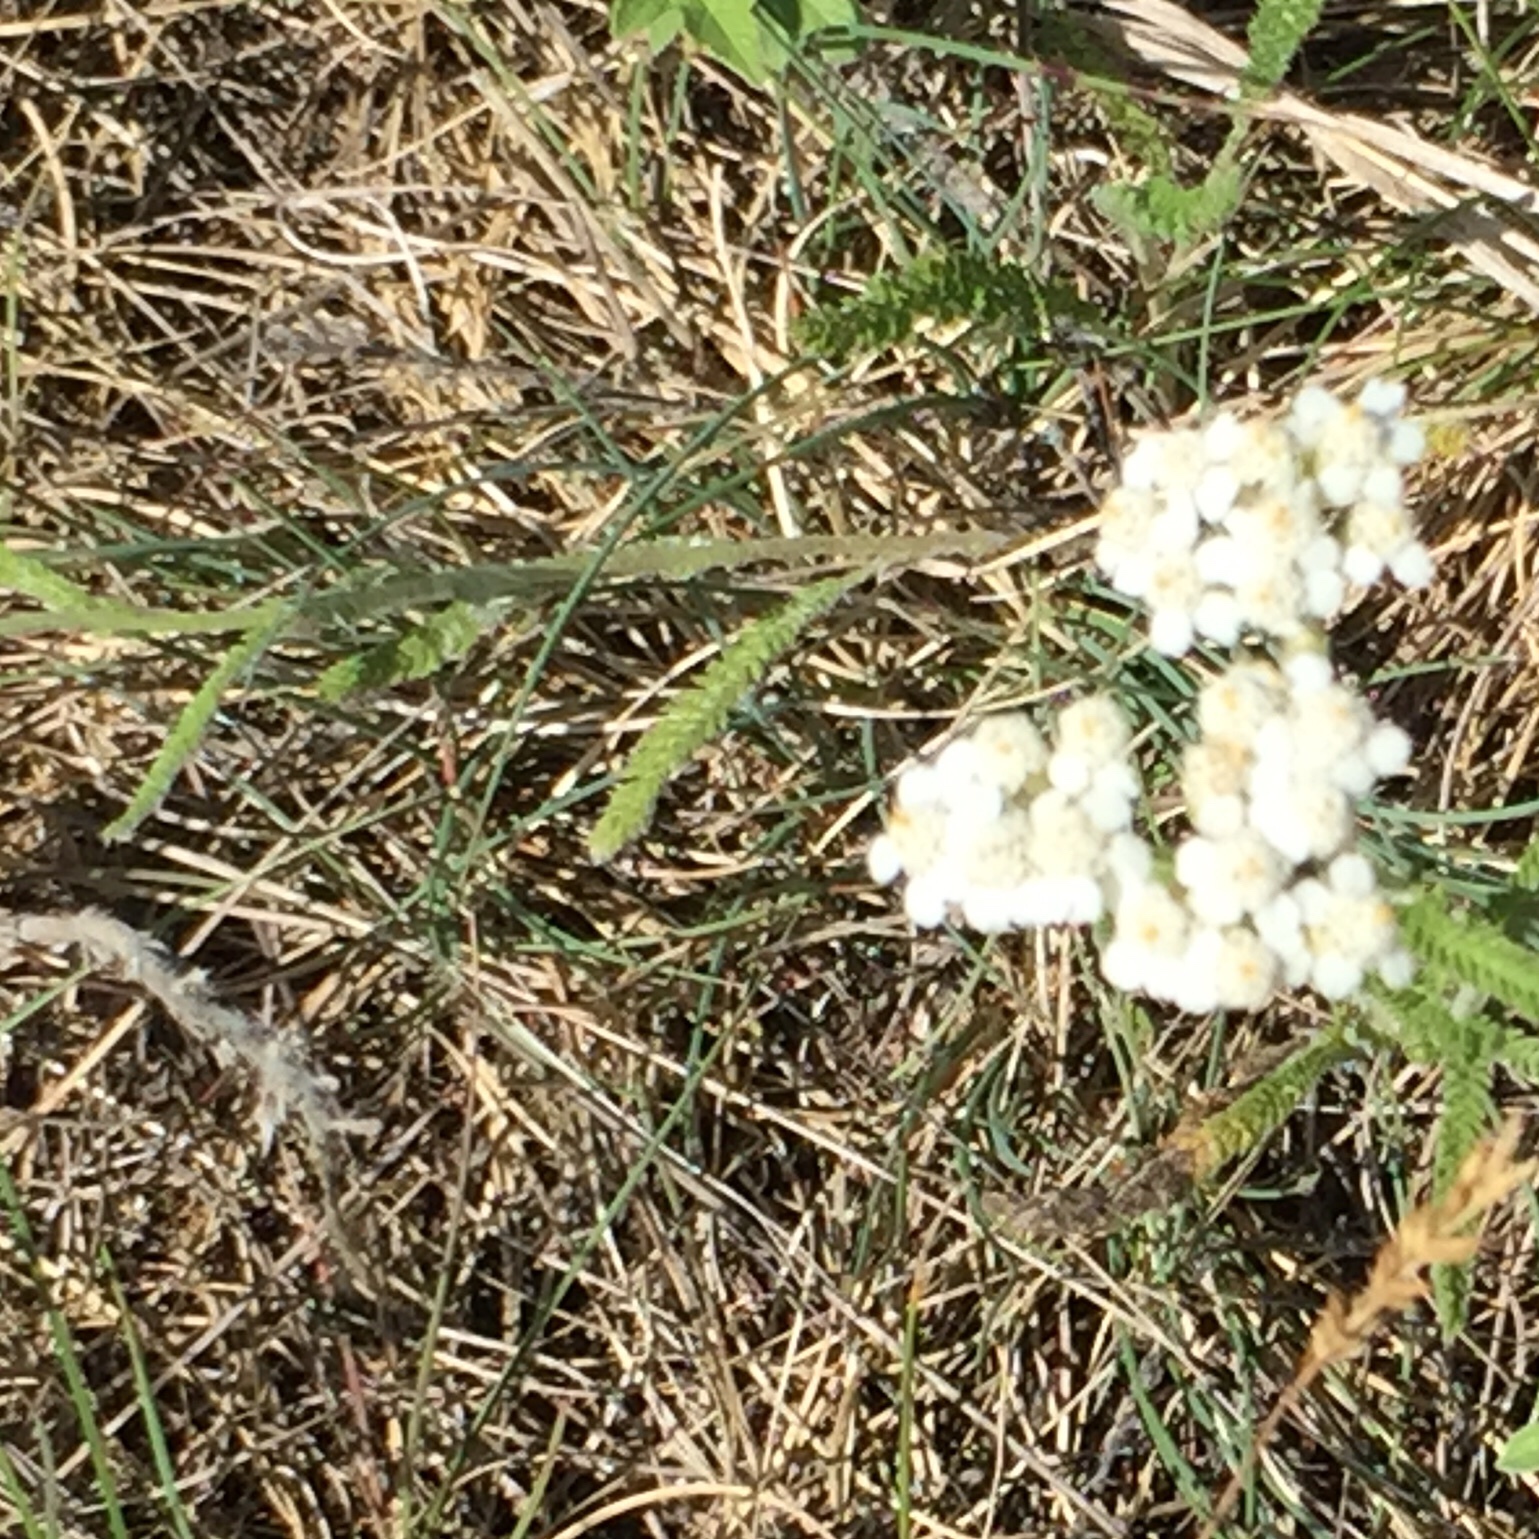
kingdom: Plantae
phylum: Tracheophyta
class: Magnoliopsida
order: Asterales
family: Asteraceae
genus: Achillea
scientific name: Achillea millefolium
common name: Yarrow
